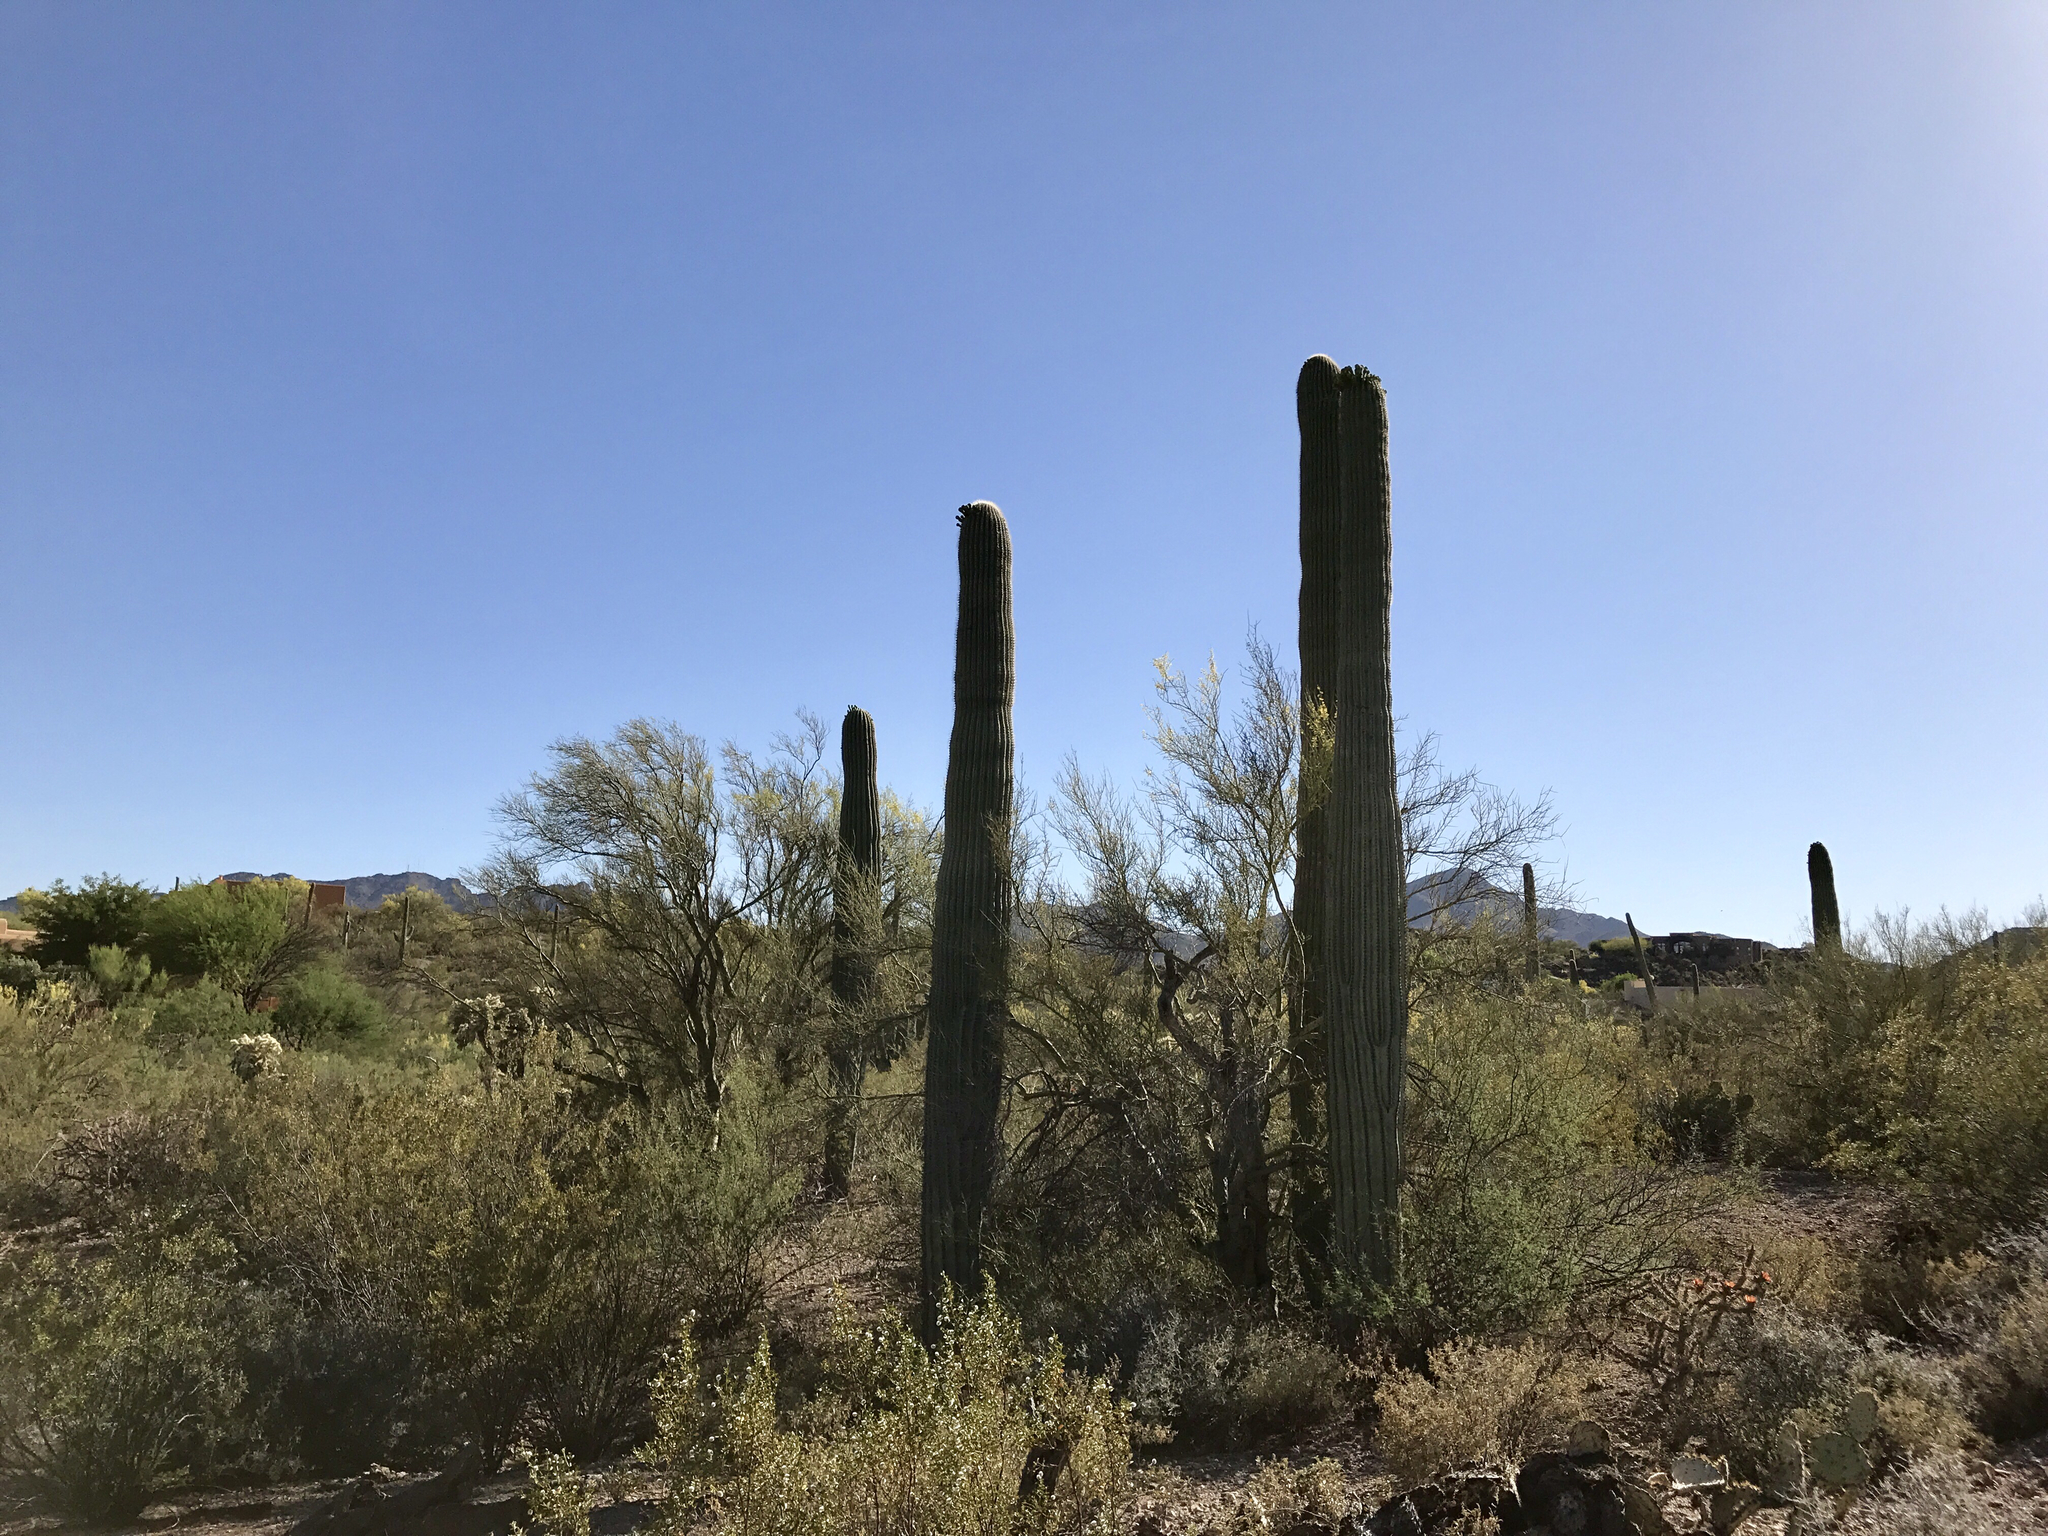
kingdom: Plantae
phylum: Tracheophyta
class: Magnoliopsida
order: Caryophyllales
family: Cactaceae
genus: Carnegiea
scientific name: Carnegiea gigantea
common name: Saguaro
